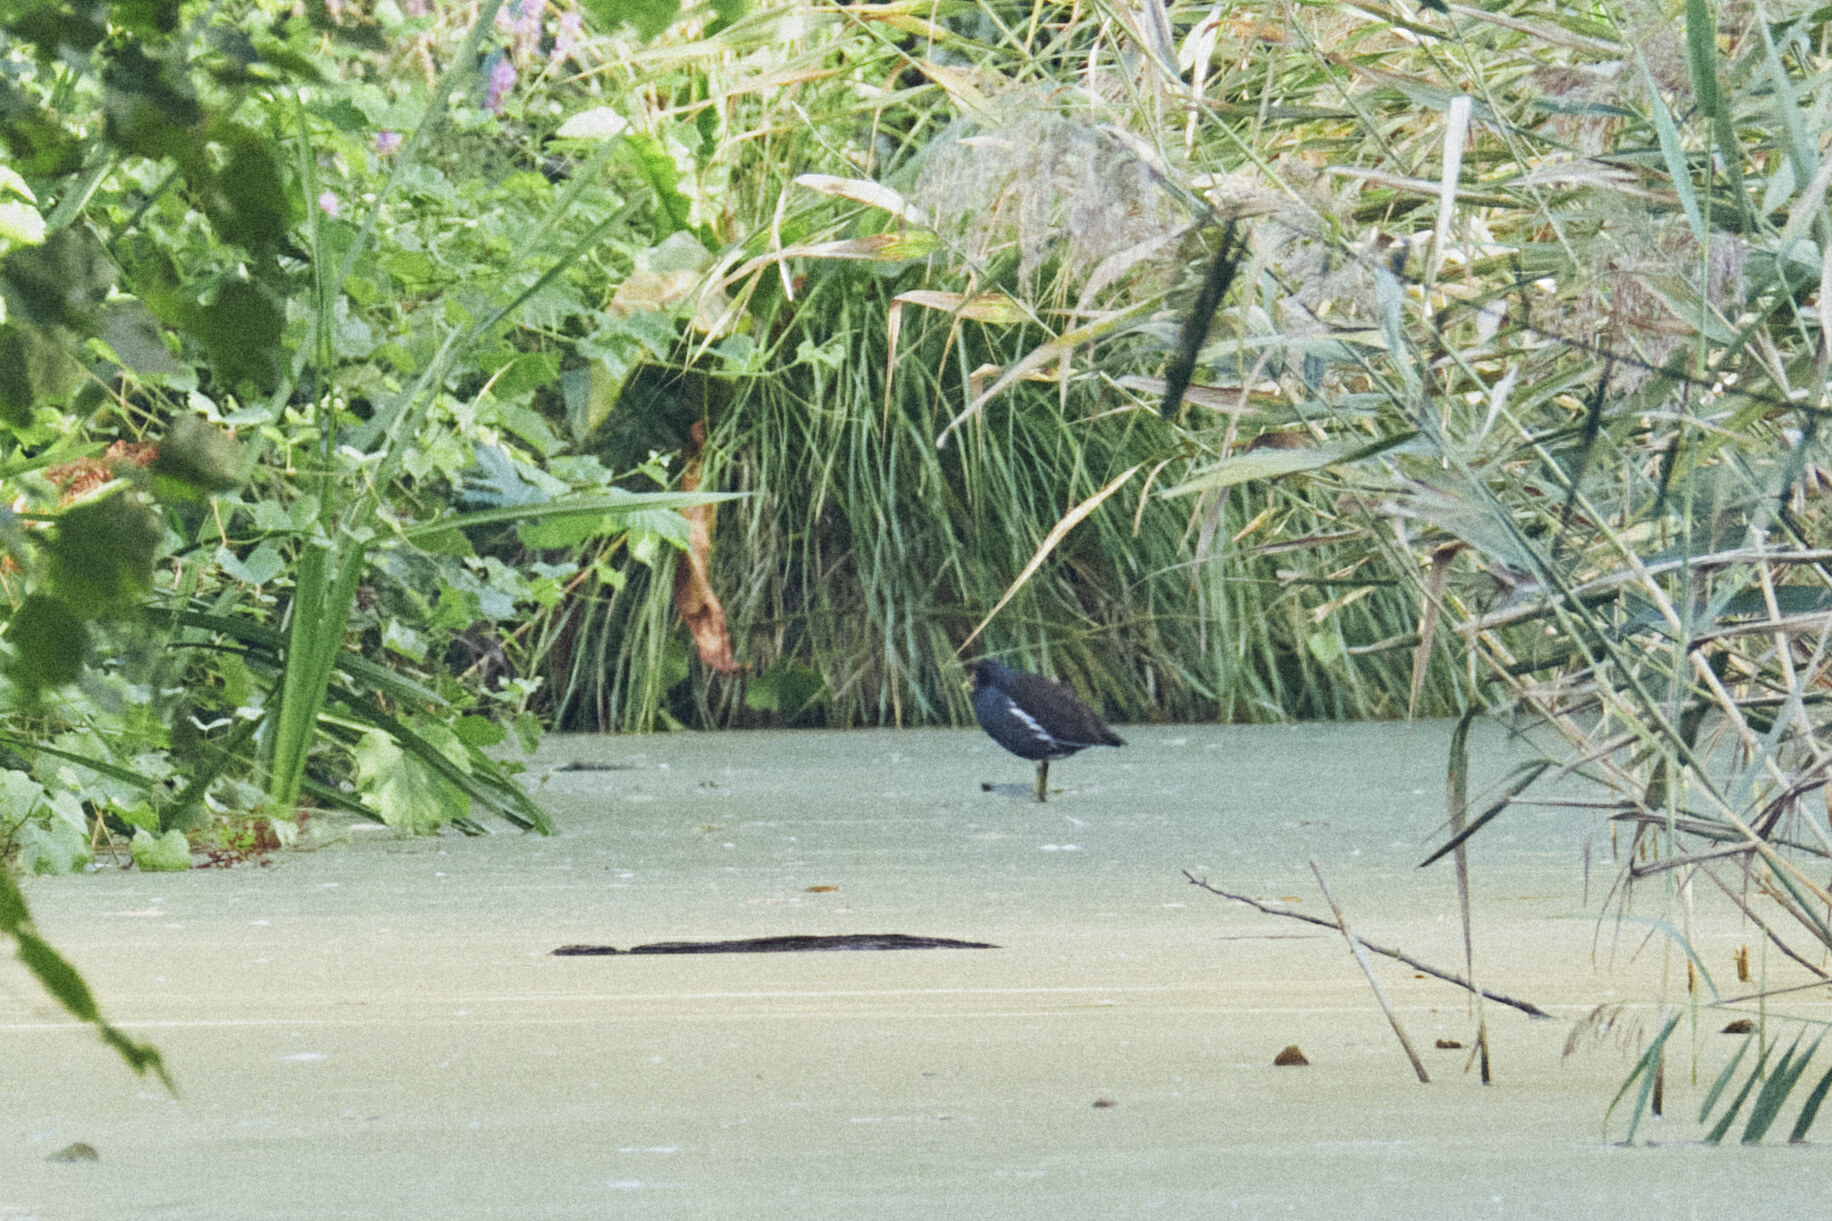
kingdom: Animalia
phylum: Chordata
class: Aves
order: Gruiformes
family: Rallidae
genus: Gallinula
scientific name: Gallinula chloropus
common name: Common moorhen
